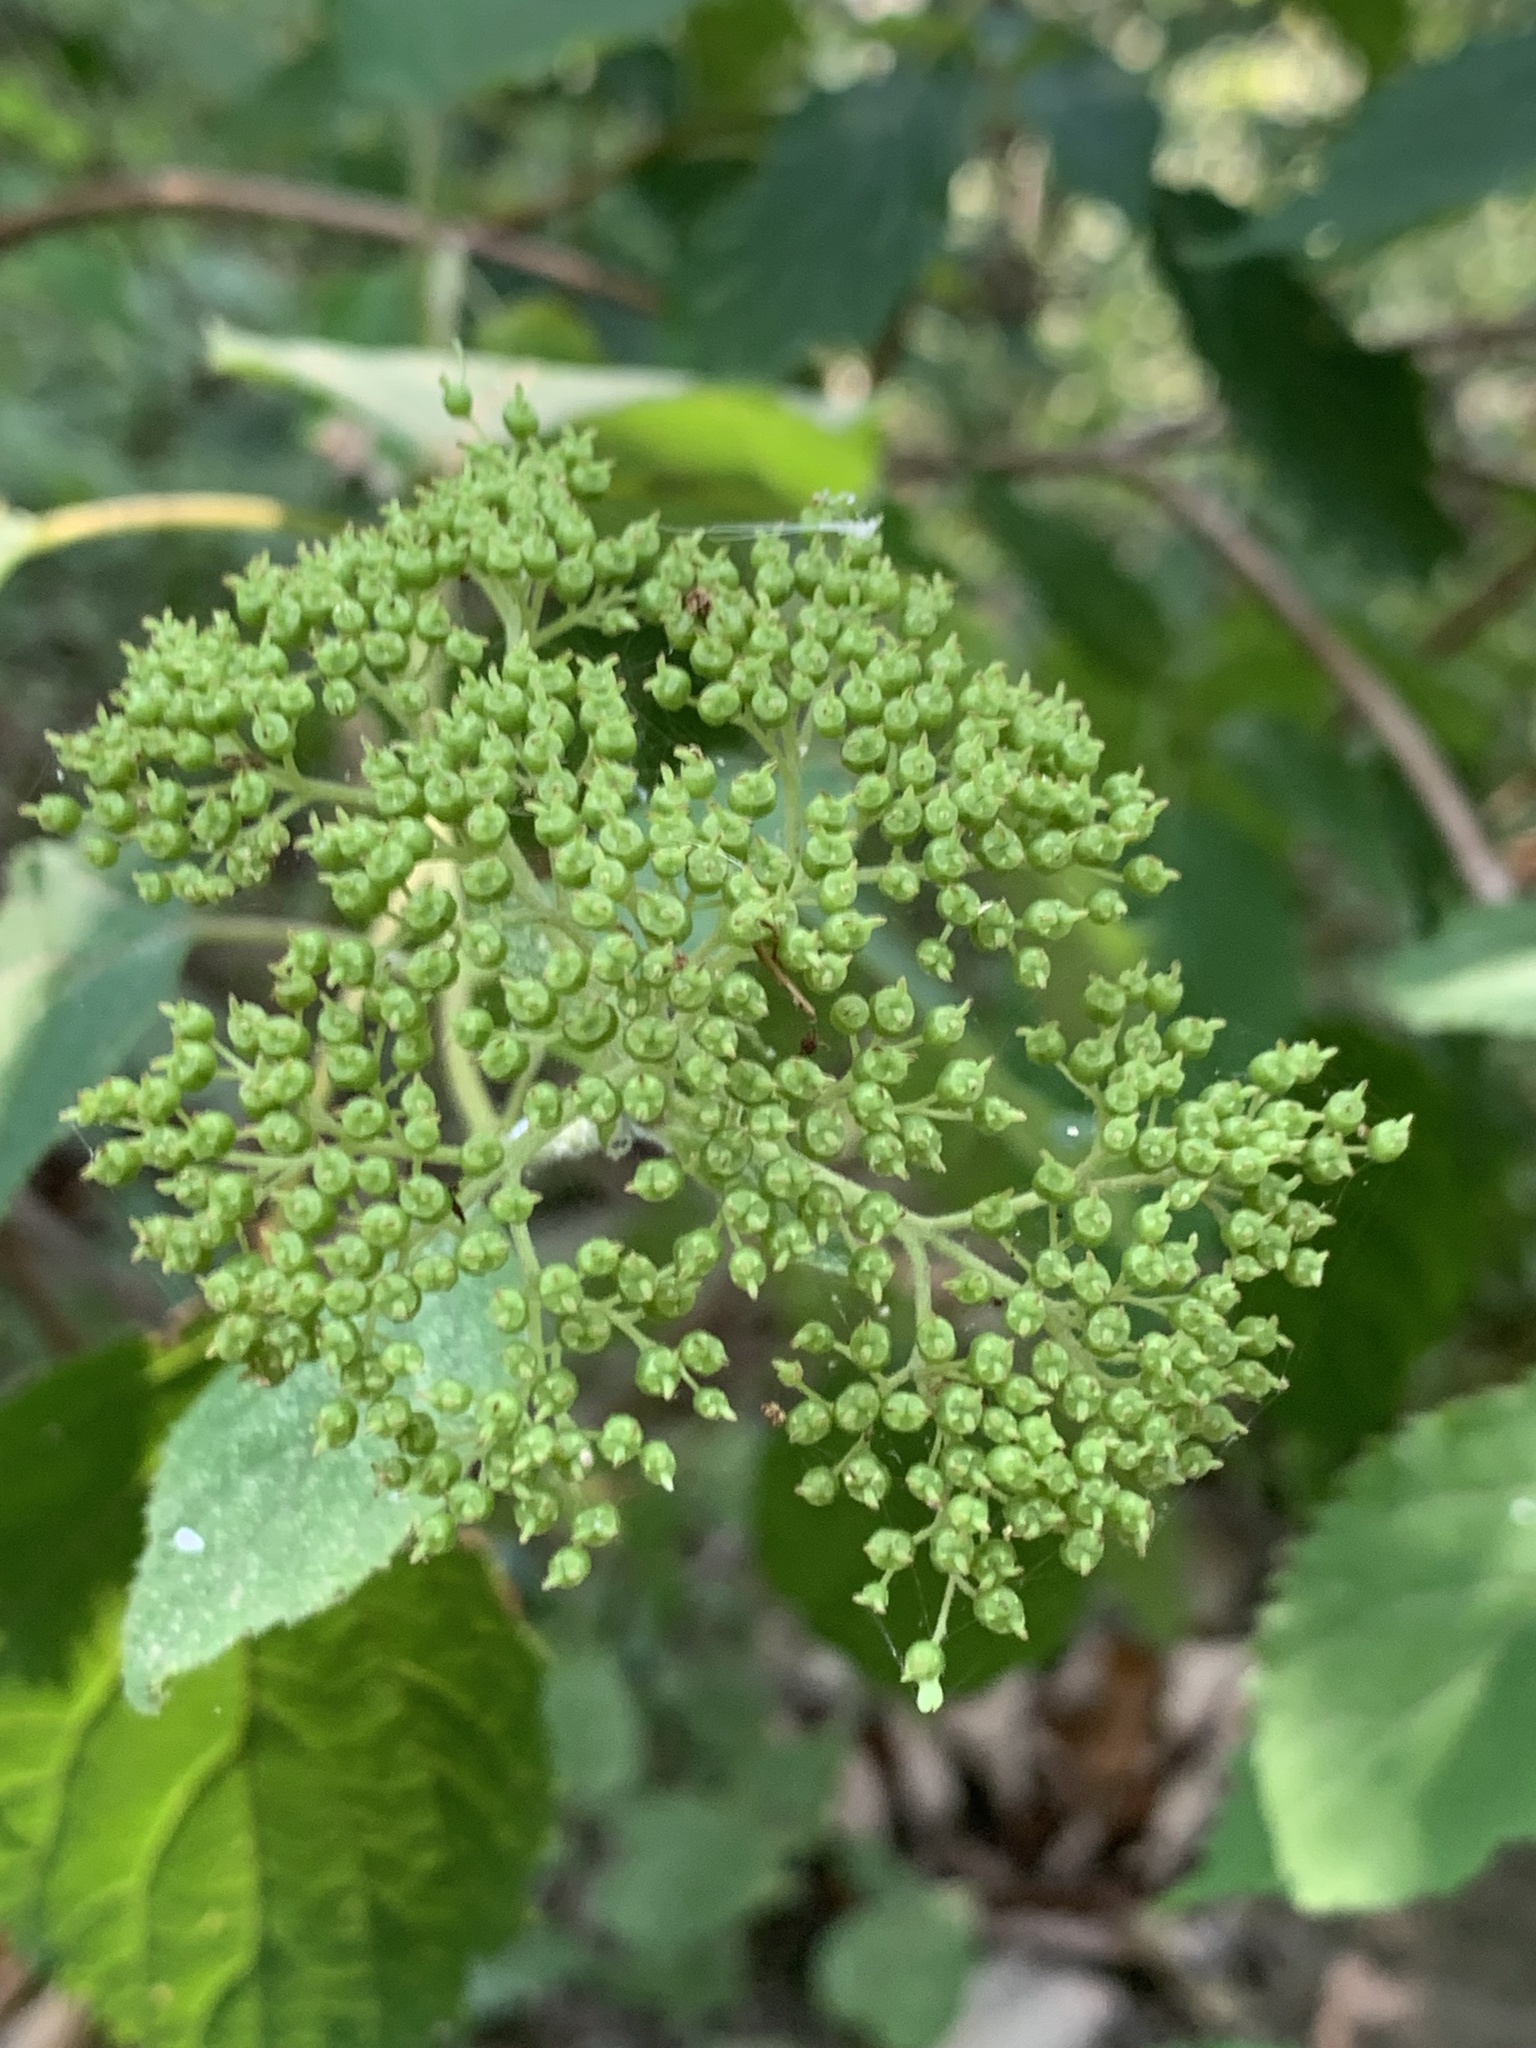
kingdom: Plantae
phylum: Tracheophyta
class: Magnoliopsida
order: Cornales
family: Hydrangeaceae
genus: Hydrangea
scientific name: Hydrangea arborescens
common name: Sevenbark
